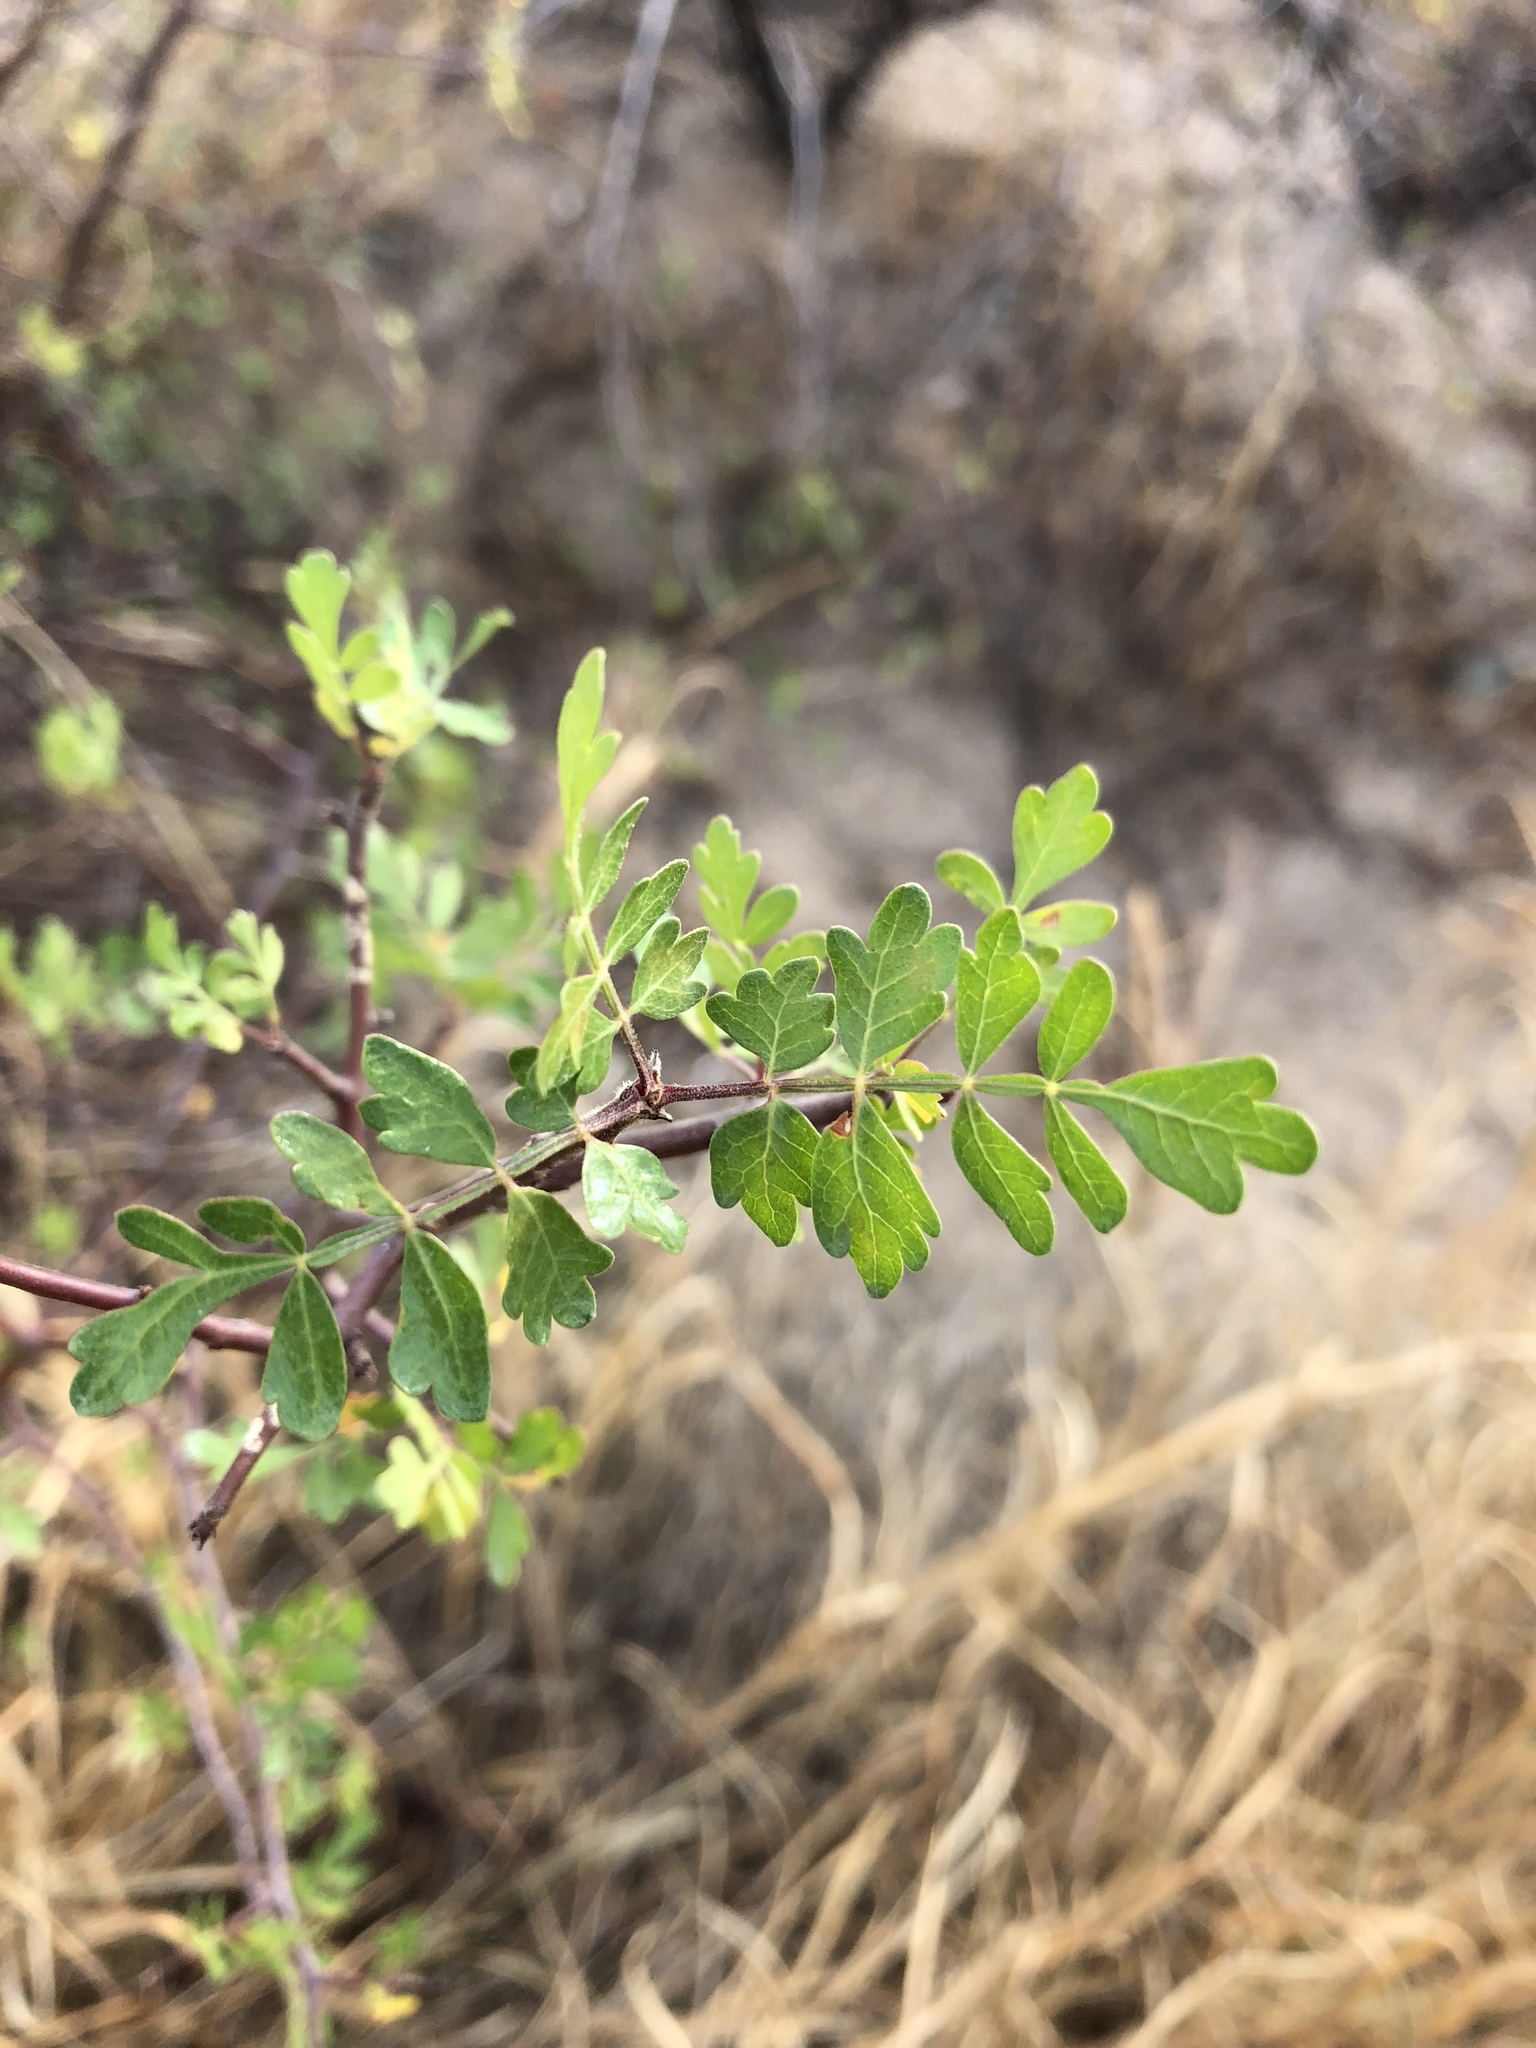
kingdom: Plantae
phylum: Tracheophyta
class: Magnoliopsida
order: Sapindales
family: Burseraceae
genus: Bursera
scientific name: Bursera laxiflora
